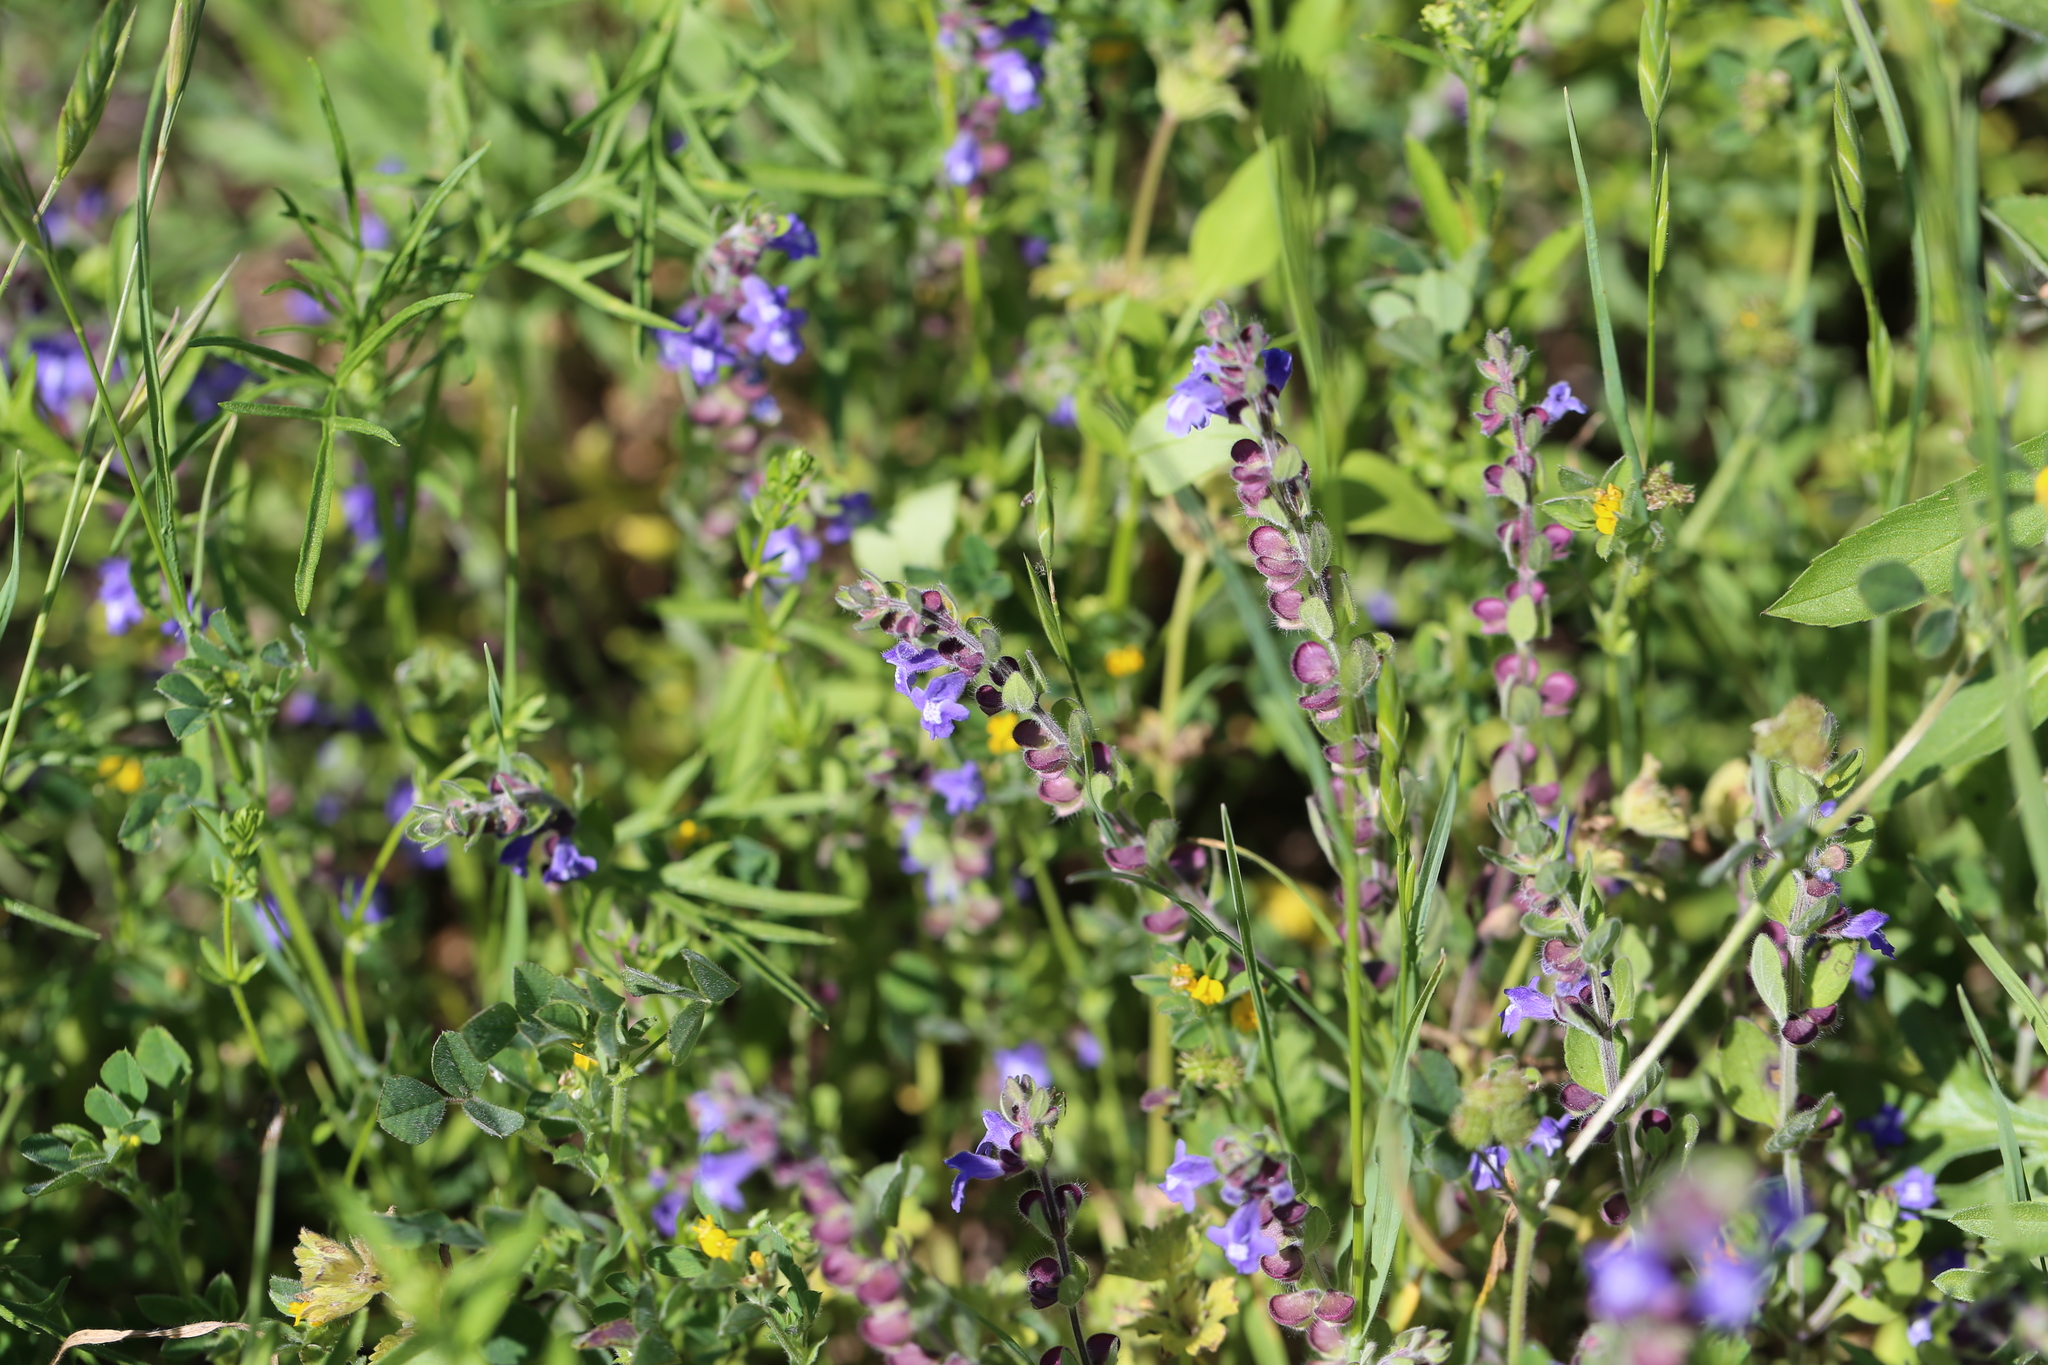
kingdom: Plantae
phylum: Tracheophyta
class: Magnoliopsida
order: Lamiales
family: Lamiaceae
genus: Scutellaria
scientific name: Scutellaria drummondii
